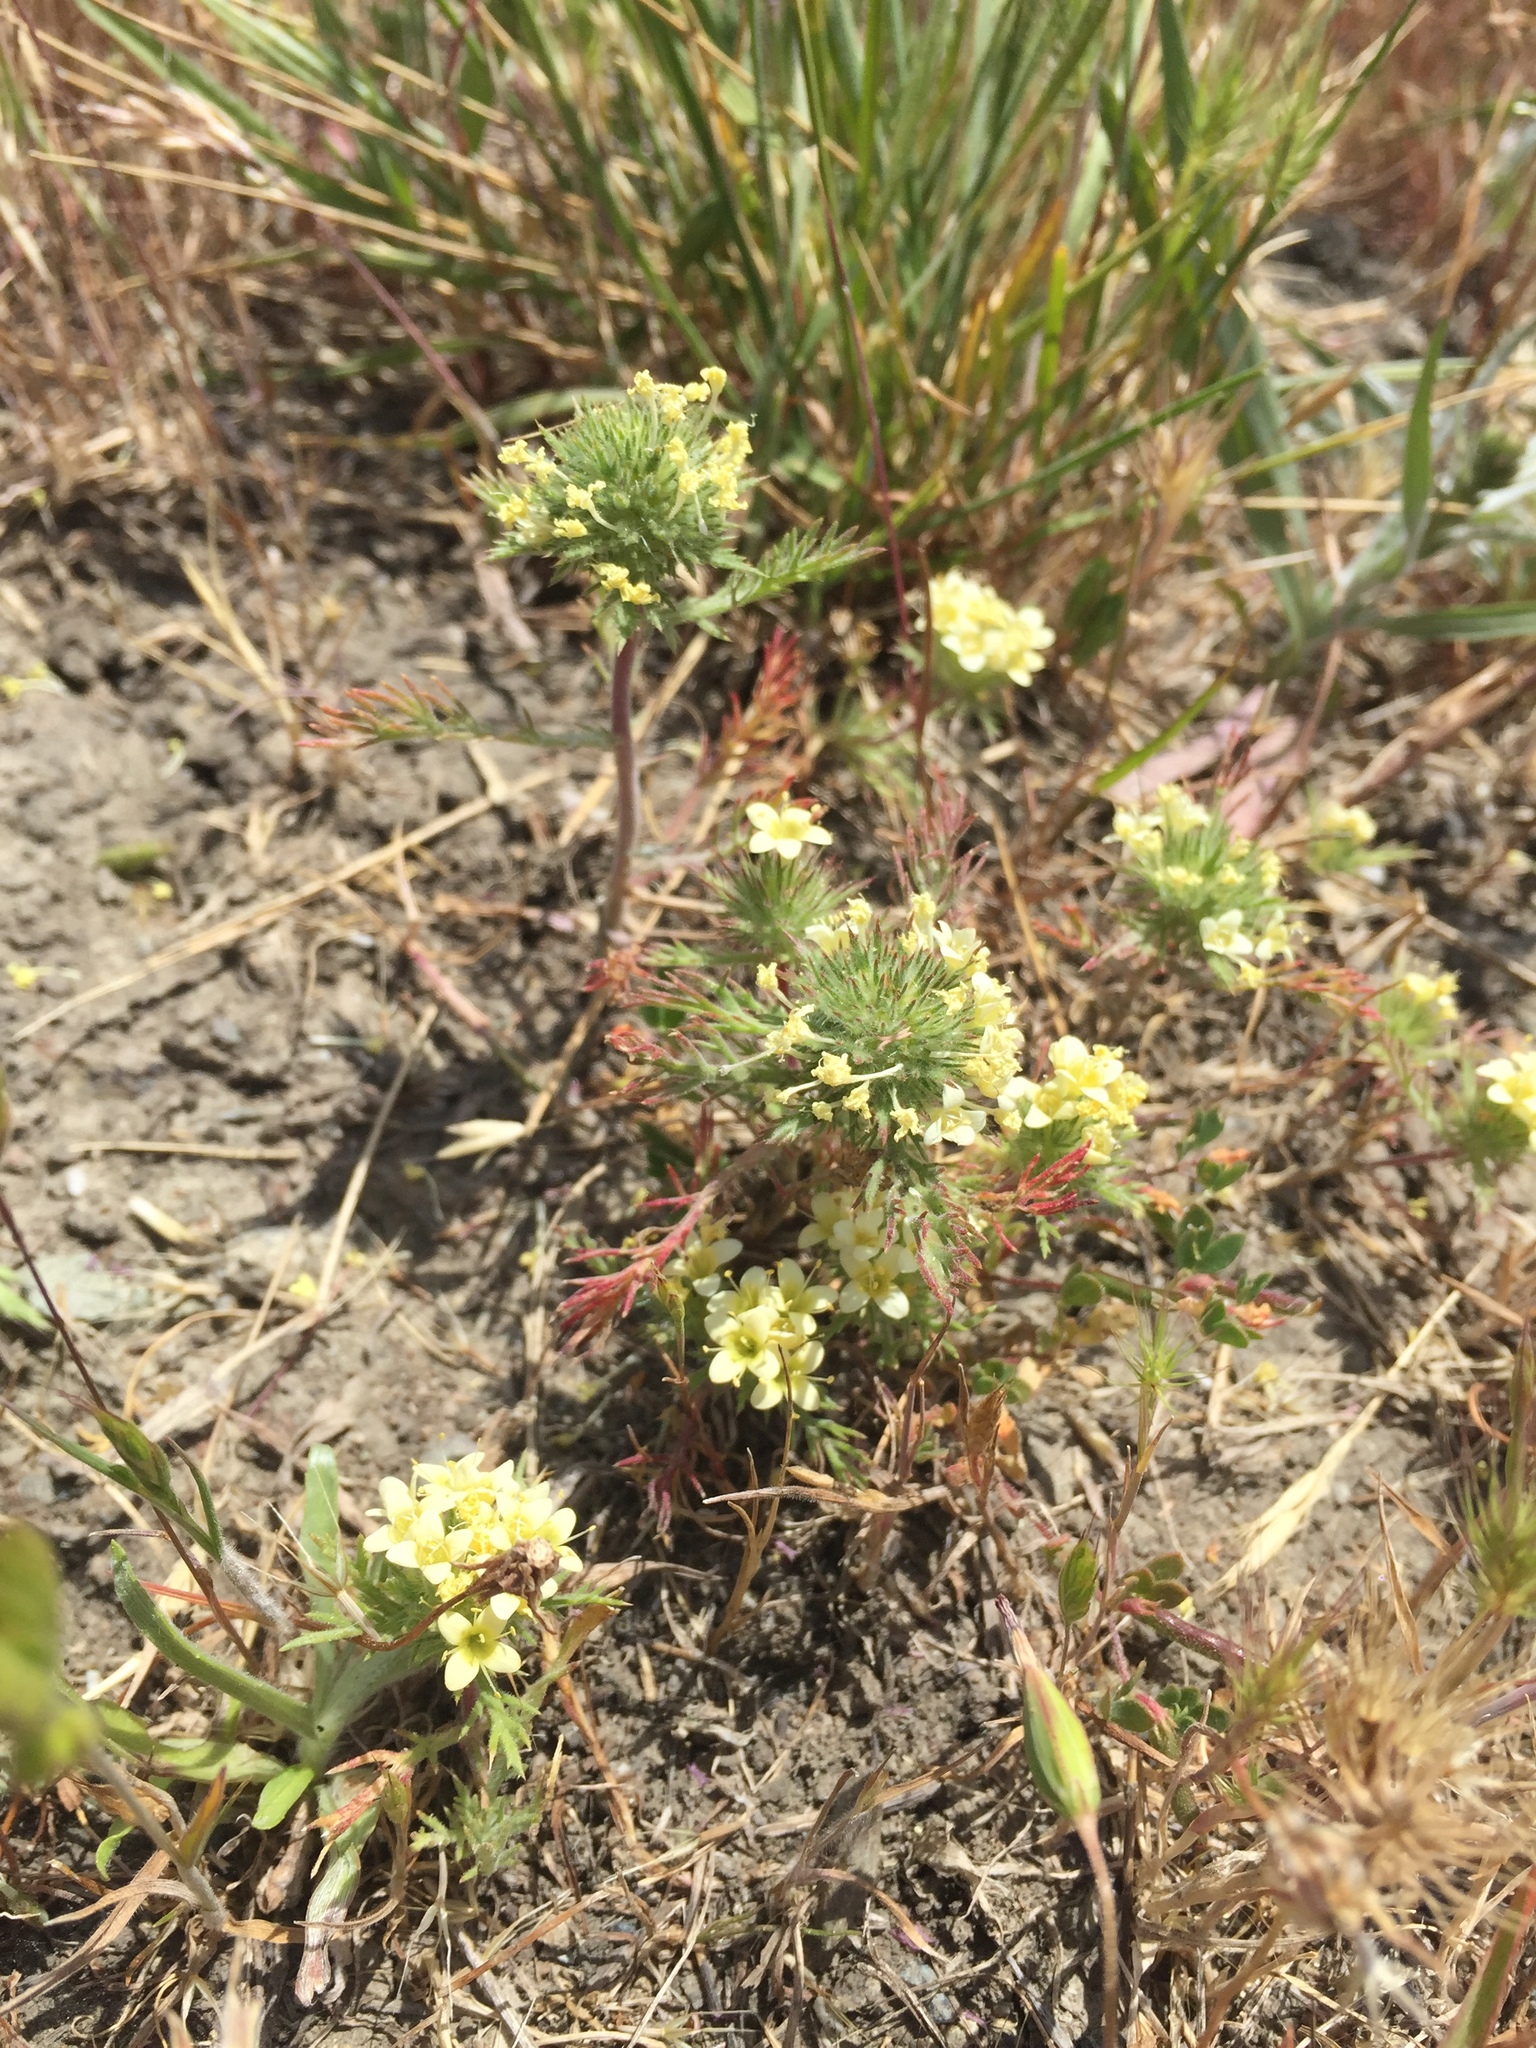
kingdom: Plantae
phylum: Tracheophyta
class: Magnoliopsida
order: Ericales
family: Polemoniaceae
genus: Navarretia
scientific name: Navarretia cotulifolia
